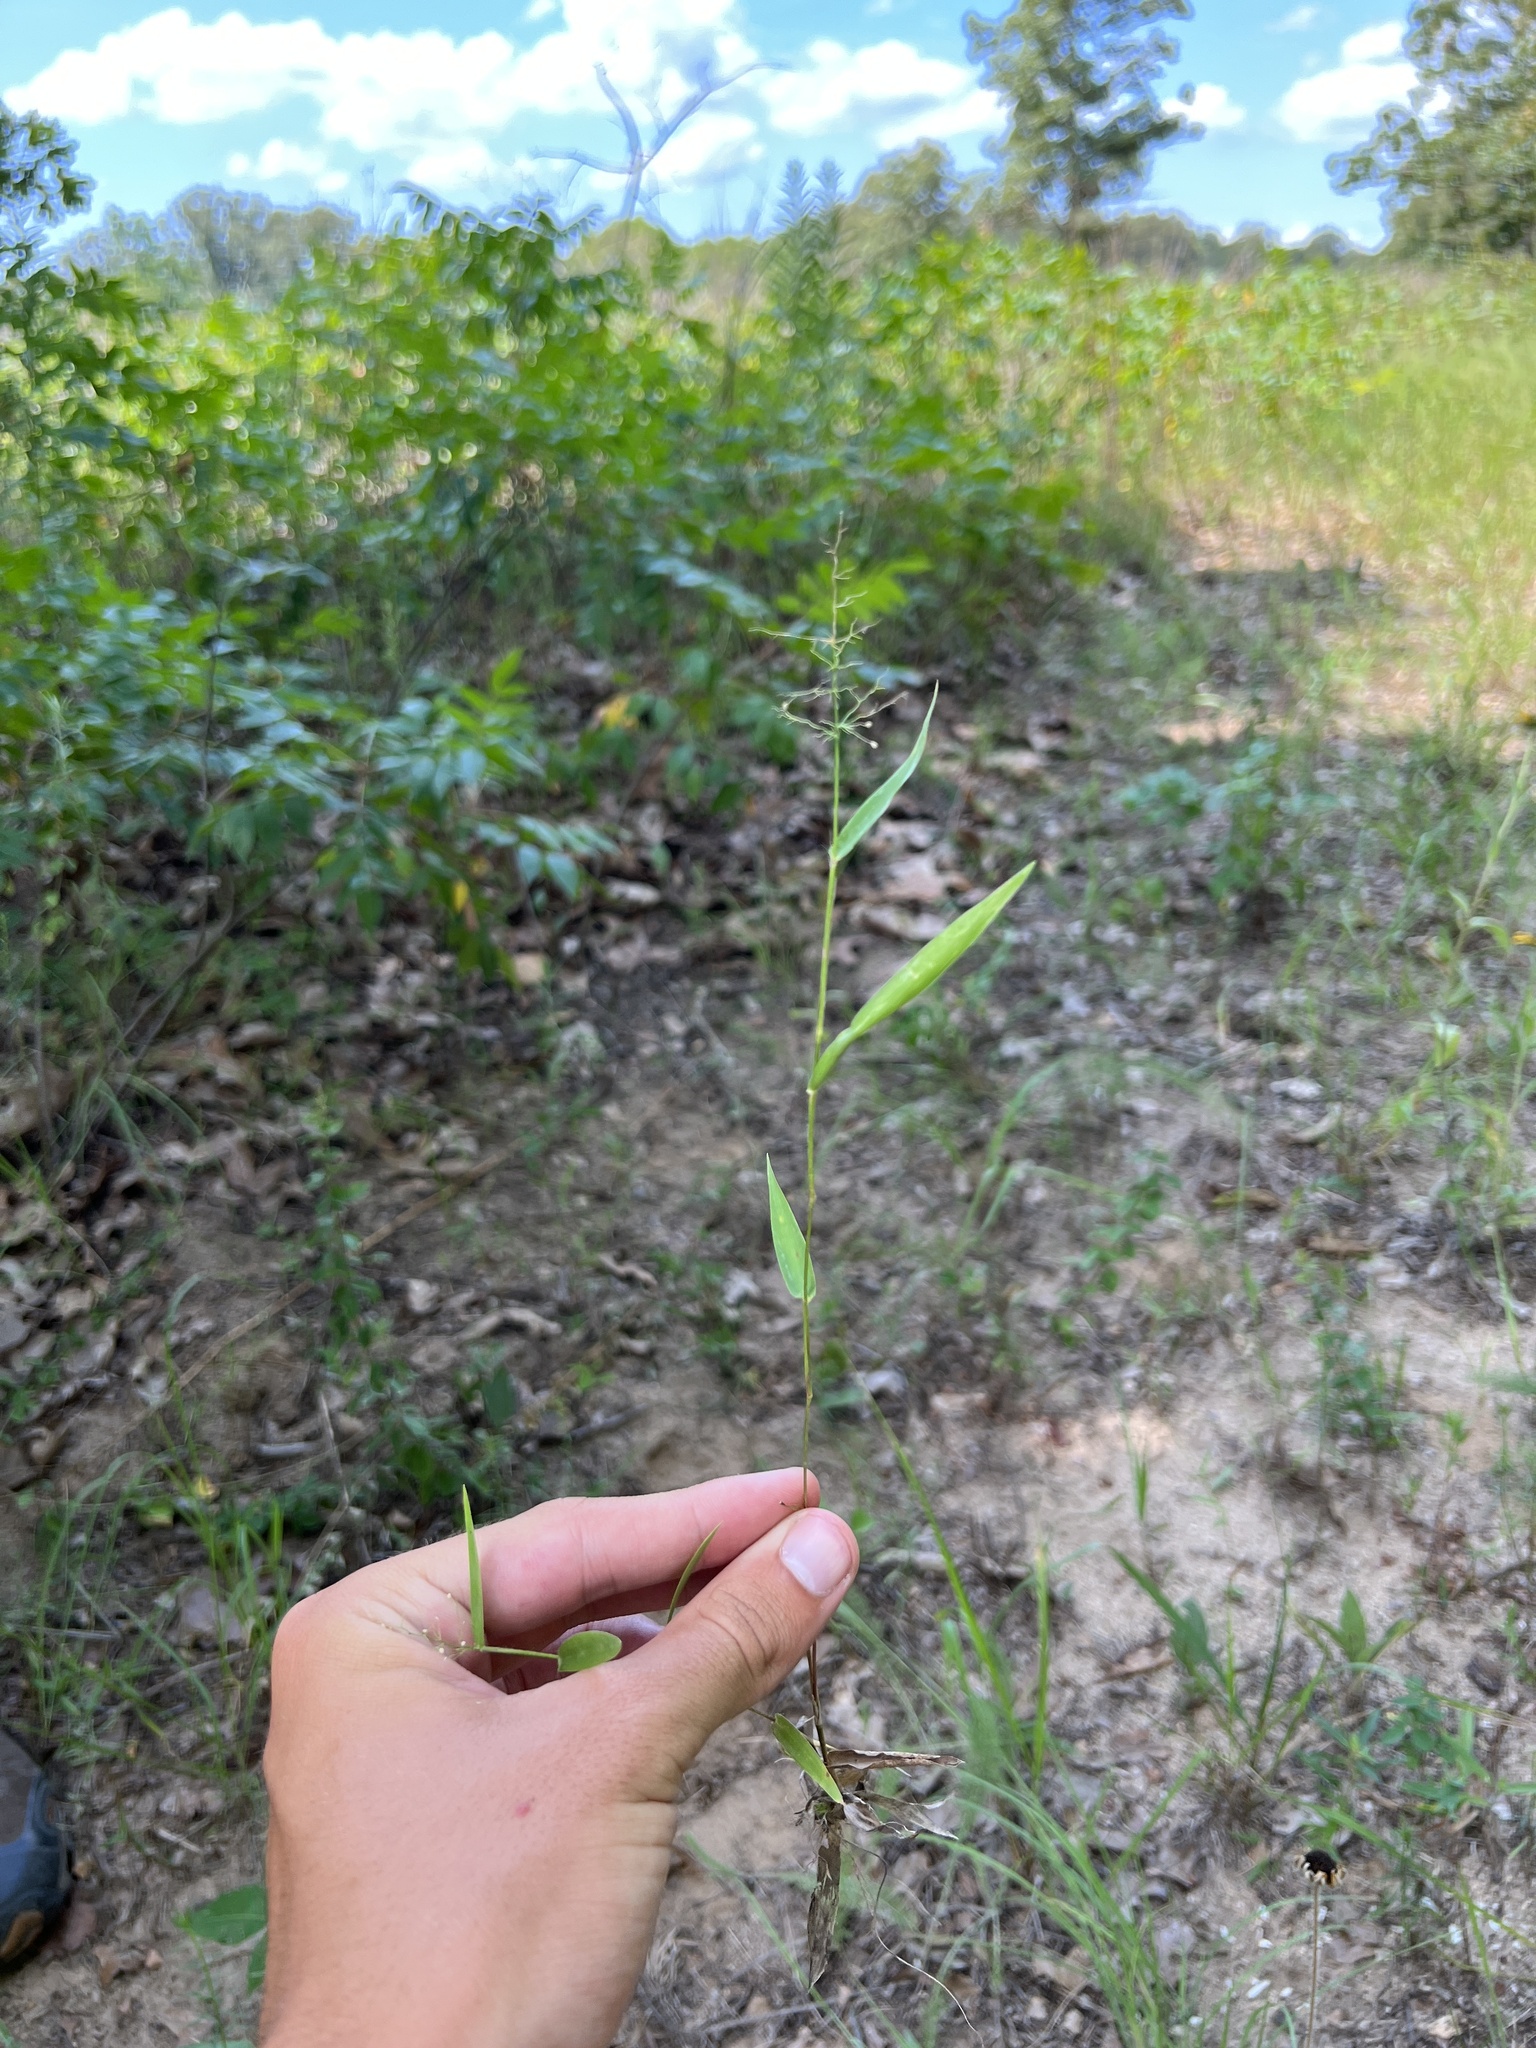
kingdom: Plantae
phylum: Tracheophyta
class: Liliopsida
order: Poales
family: Poaceae
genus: Dichanthelium
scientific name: Dichanthelium inflatum
